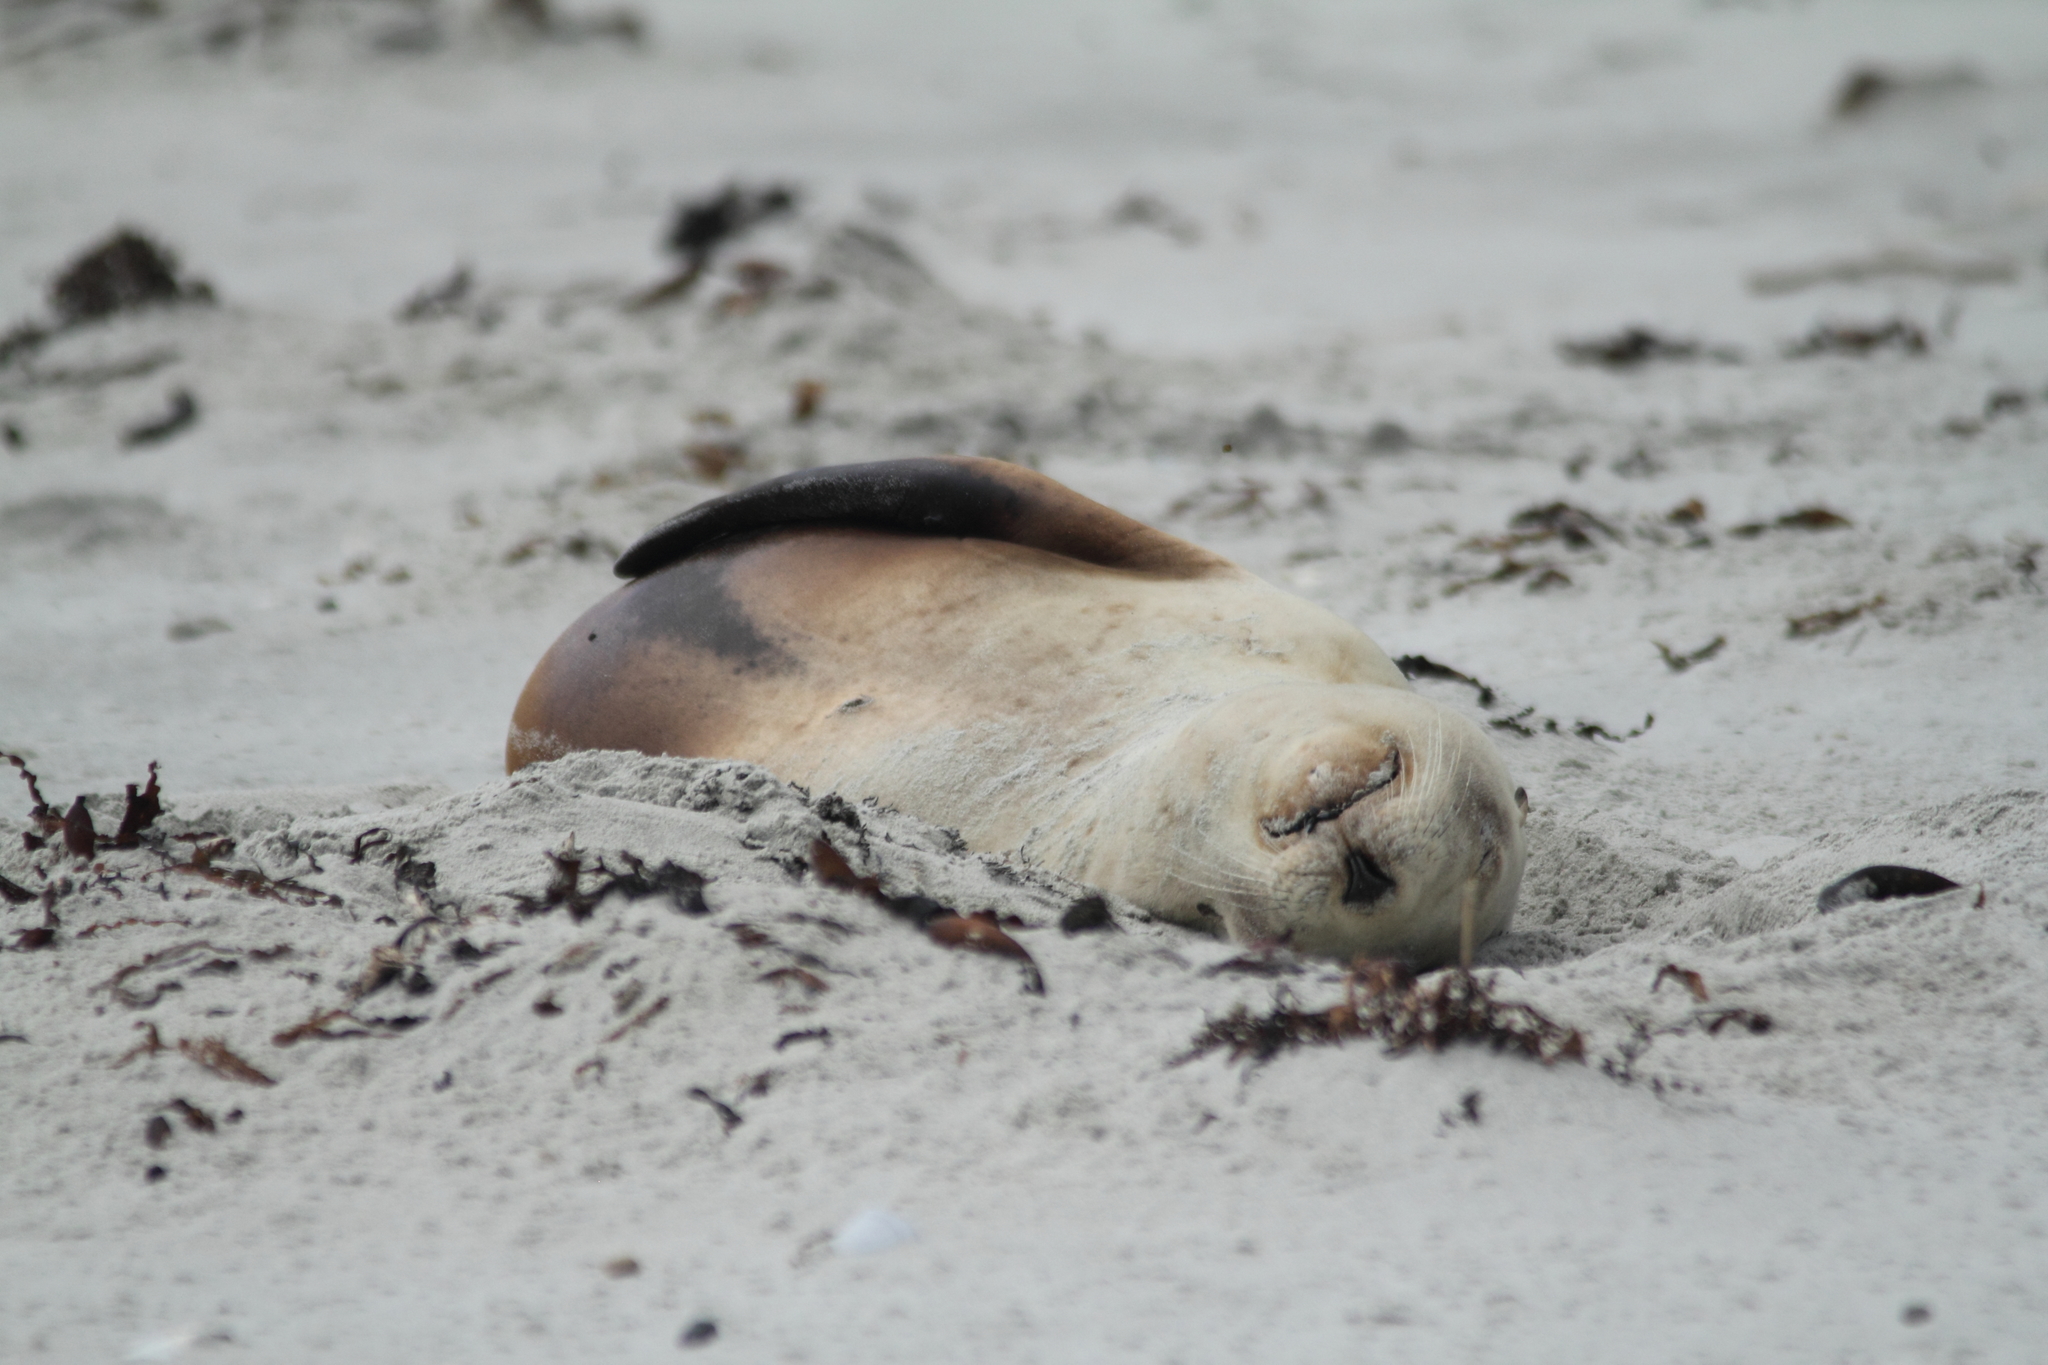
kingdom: Animalia
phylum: Chordata
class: Mammalia
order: Carnivora
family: Otariidae
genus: Phocarctos
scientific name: Phocarctos hookeri
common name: New zealand sea lion
